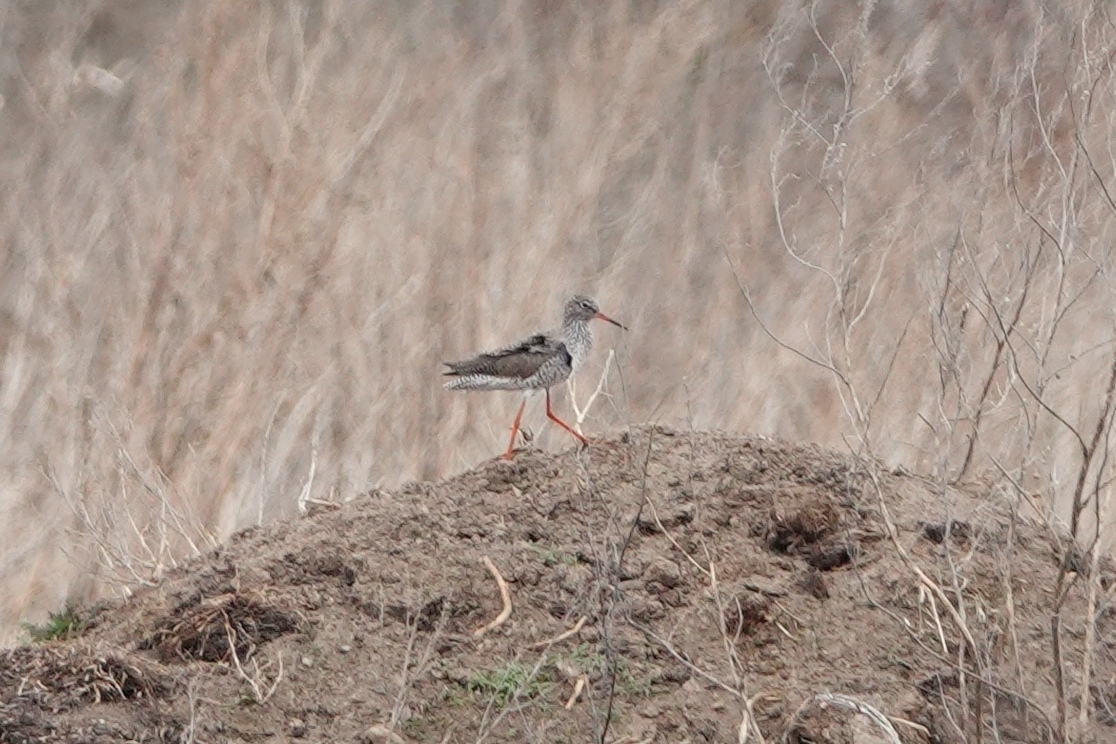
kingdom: Animalia
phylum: Chordata
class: Aves
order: Charadriiformes
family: Scolopacidae
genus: Tringa
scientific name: Tringa totanus
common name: Common redshank
